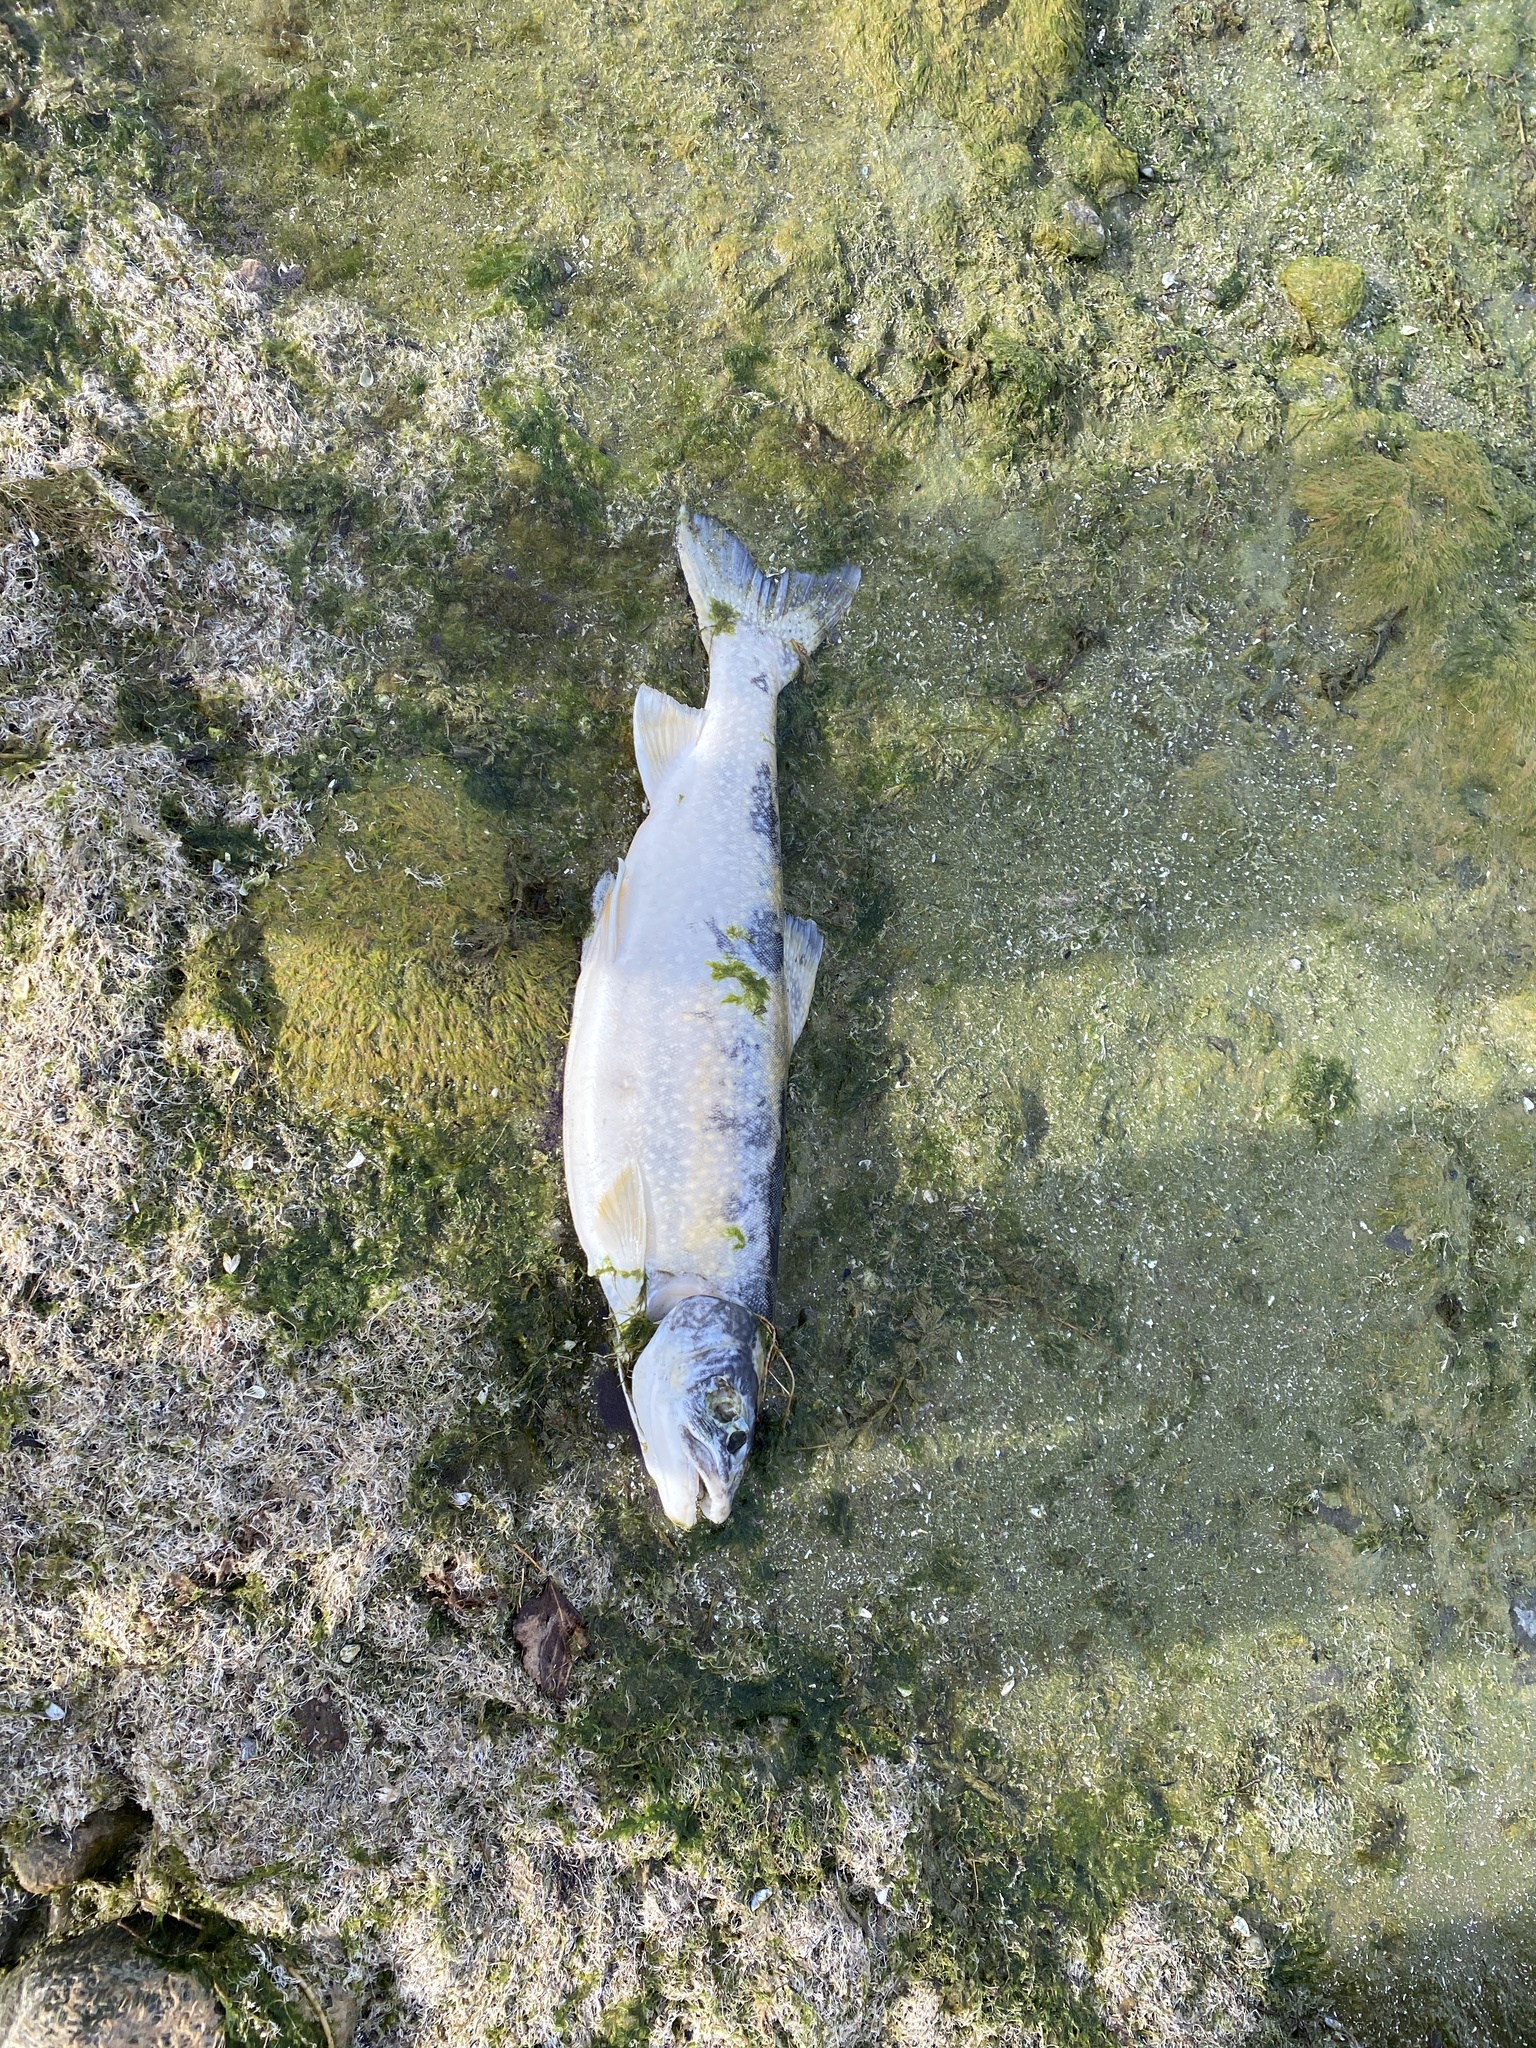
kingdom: Animalia
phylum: Chordata
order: Salmoniformes
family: Salmonidae
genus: Salvelinus
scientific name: Salvelinus namaycush
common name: American lake charr
